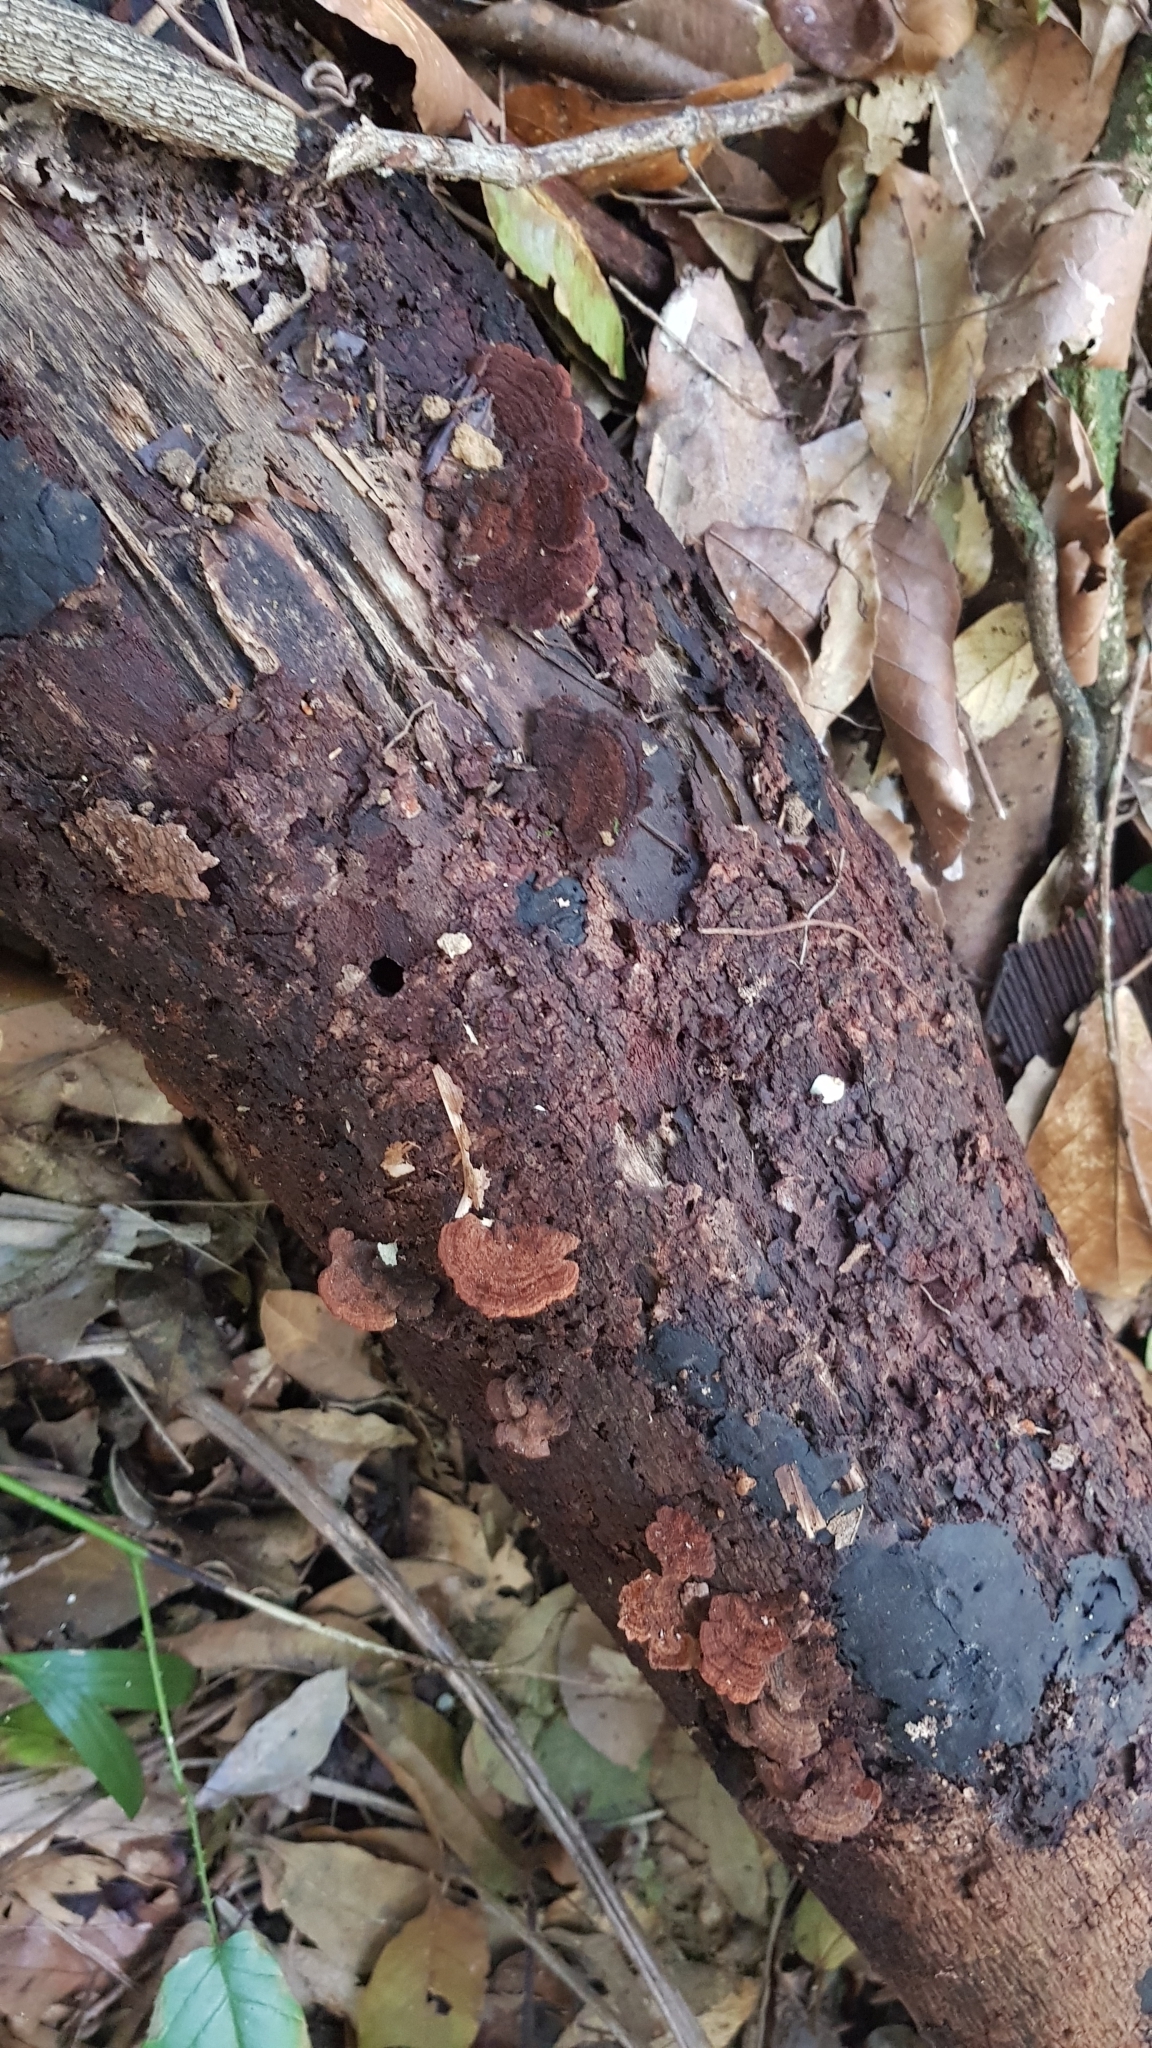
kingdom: Fungi
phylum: Basidiomycota
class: Agaricomycetes
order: Hymenochaetales
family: Hymenochaetaceae
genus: Hymenochaete
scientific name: Hymenochaete setipora
